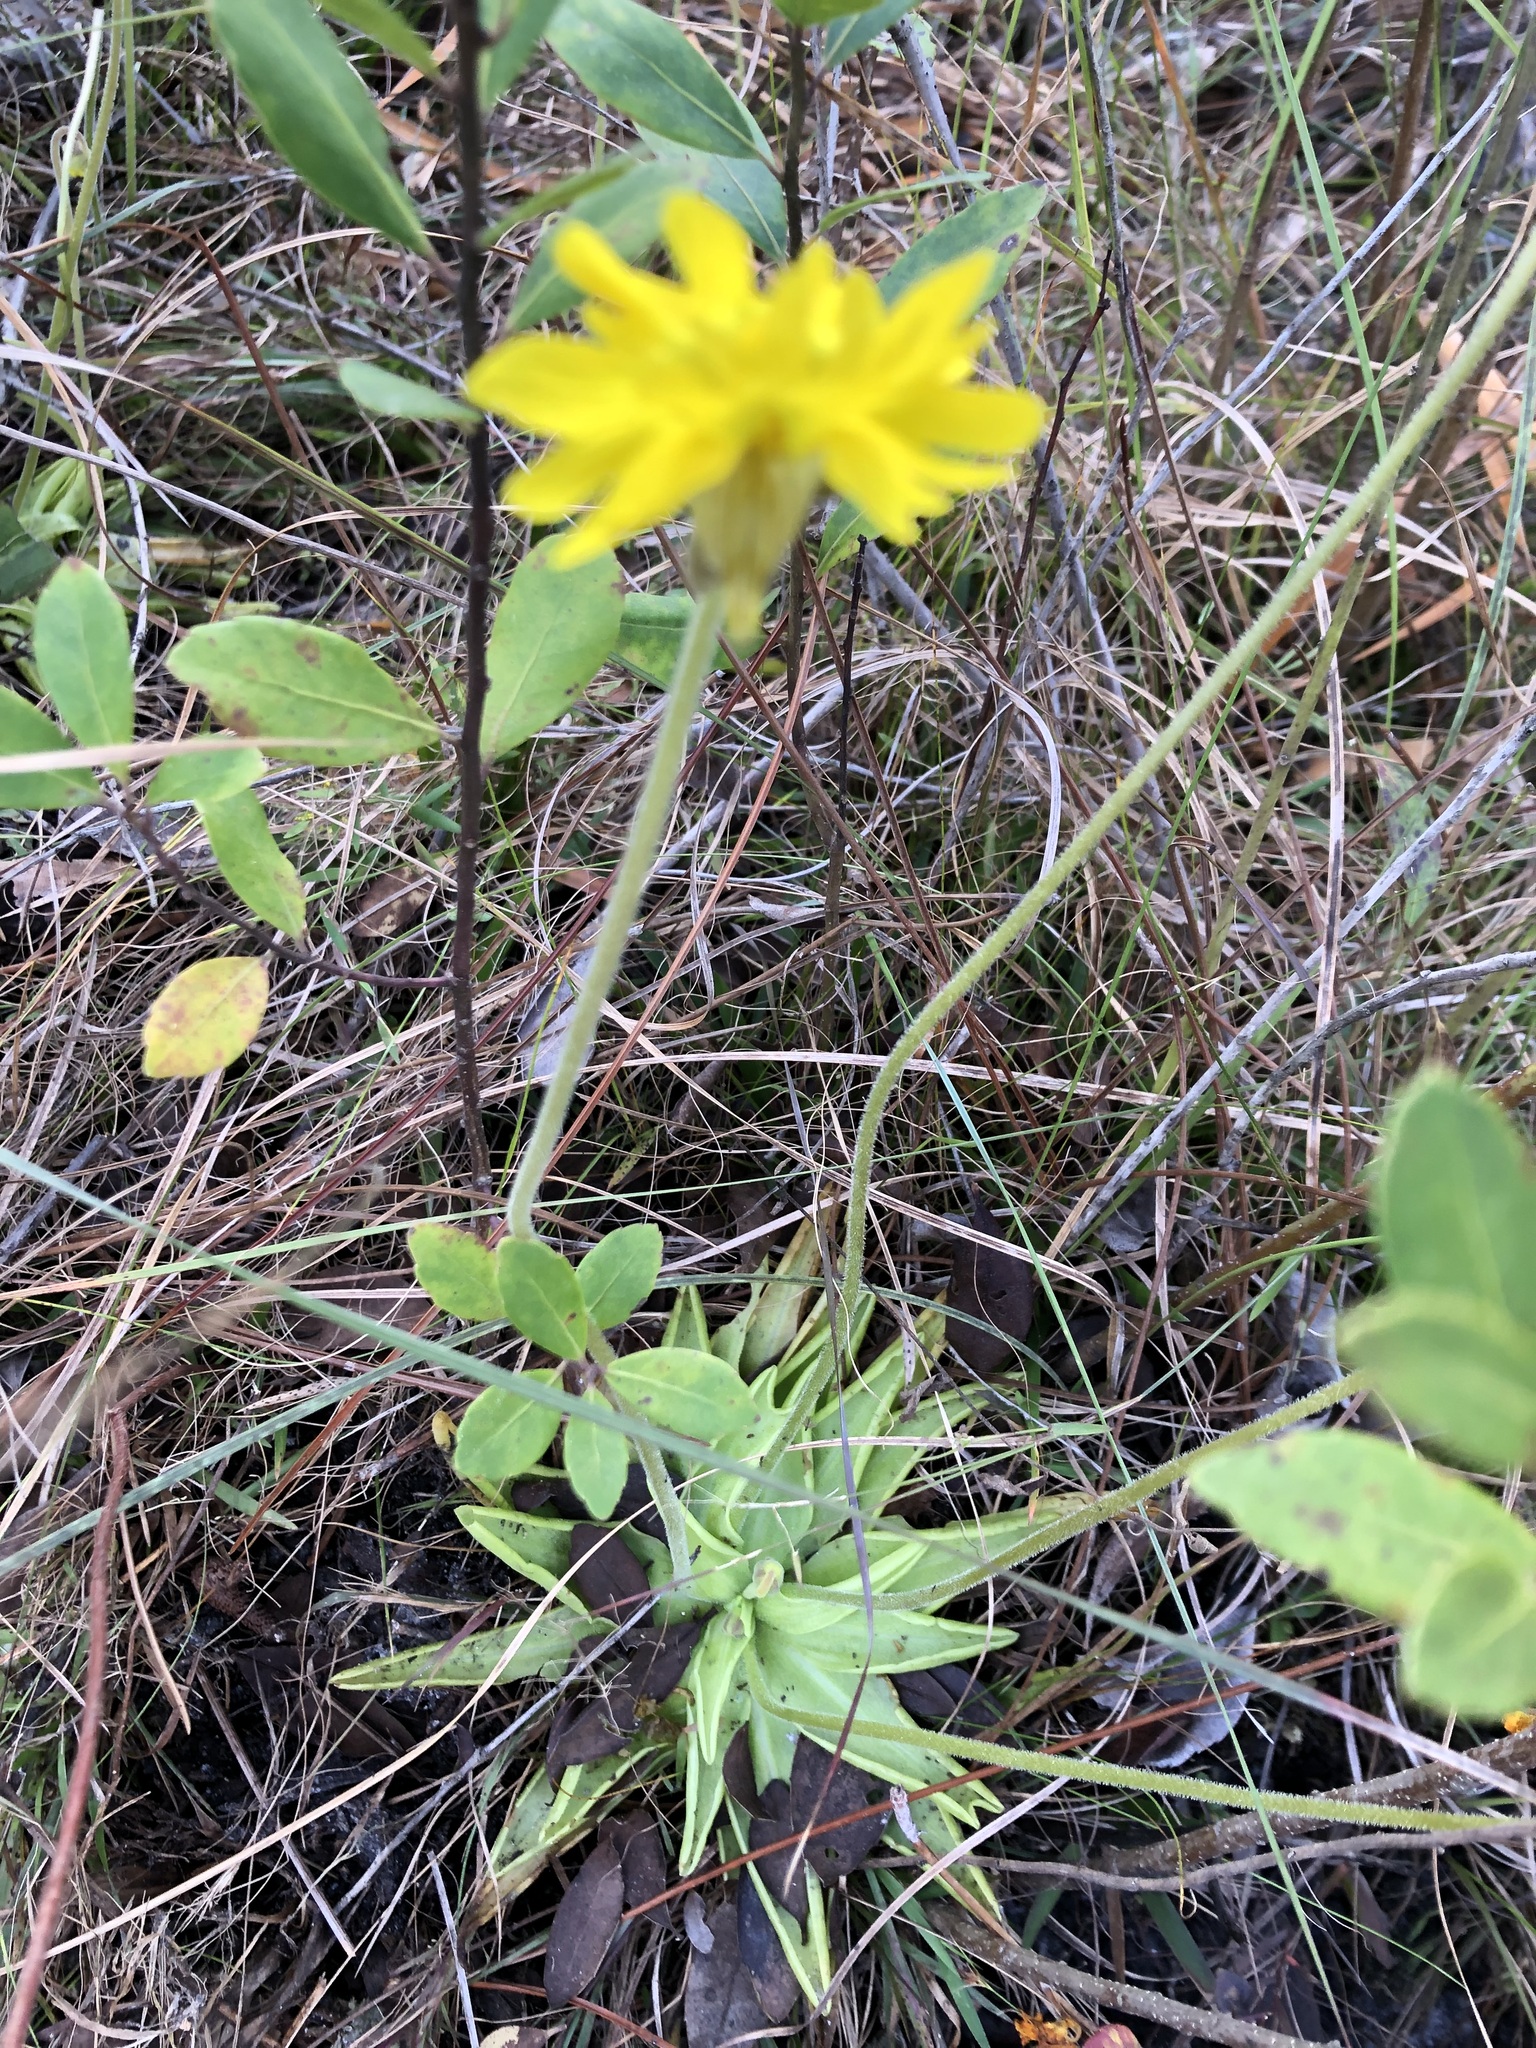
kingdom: Plantae
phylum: Tracheophyta
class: Magnoliopsida
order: Lamiales
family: Lentibulariaceae
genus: Pinguicula
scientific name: Pinguicula lutea
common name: Yellow butterwort
